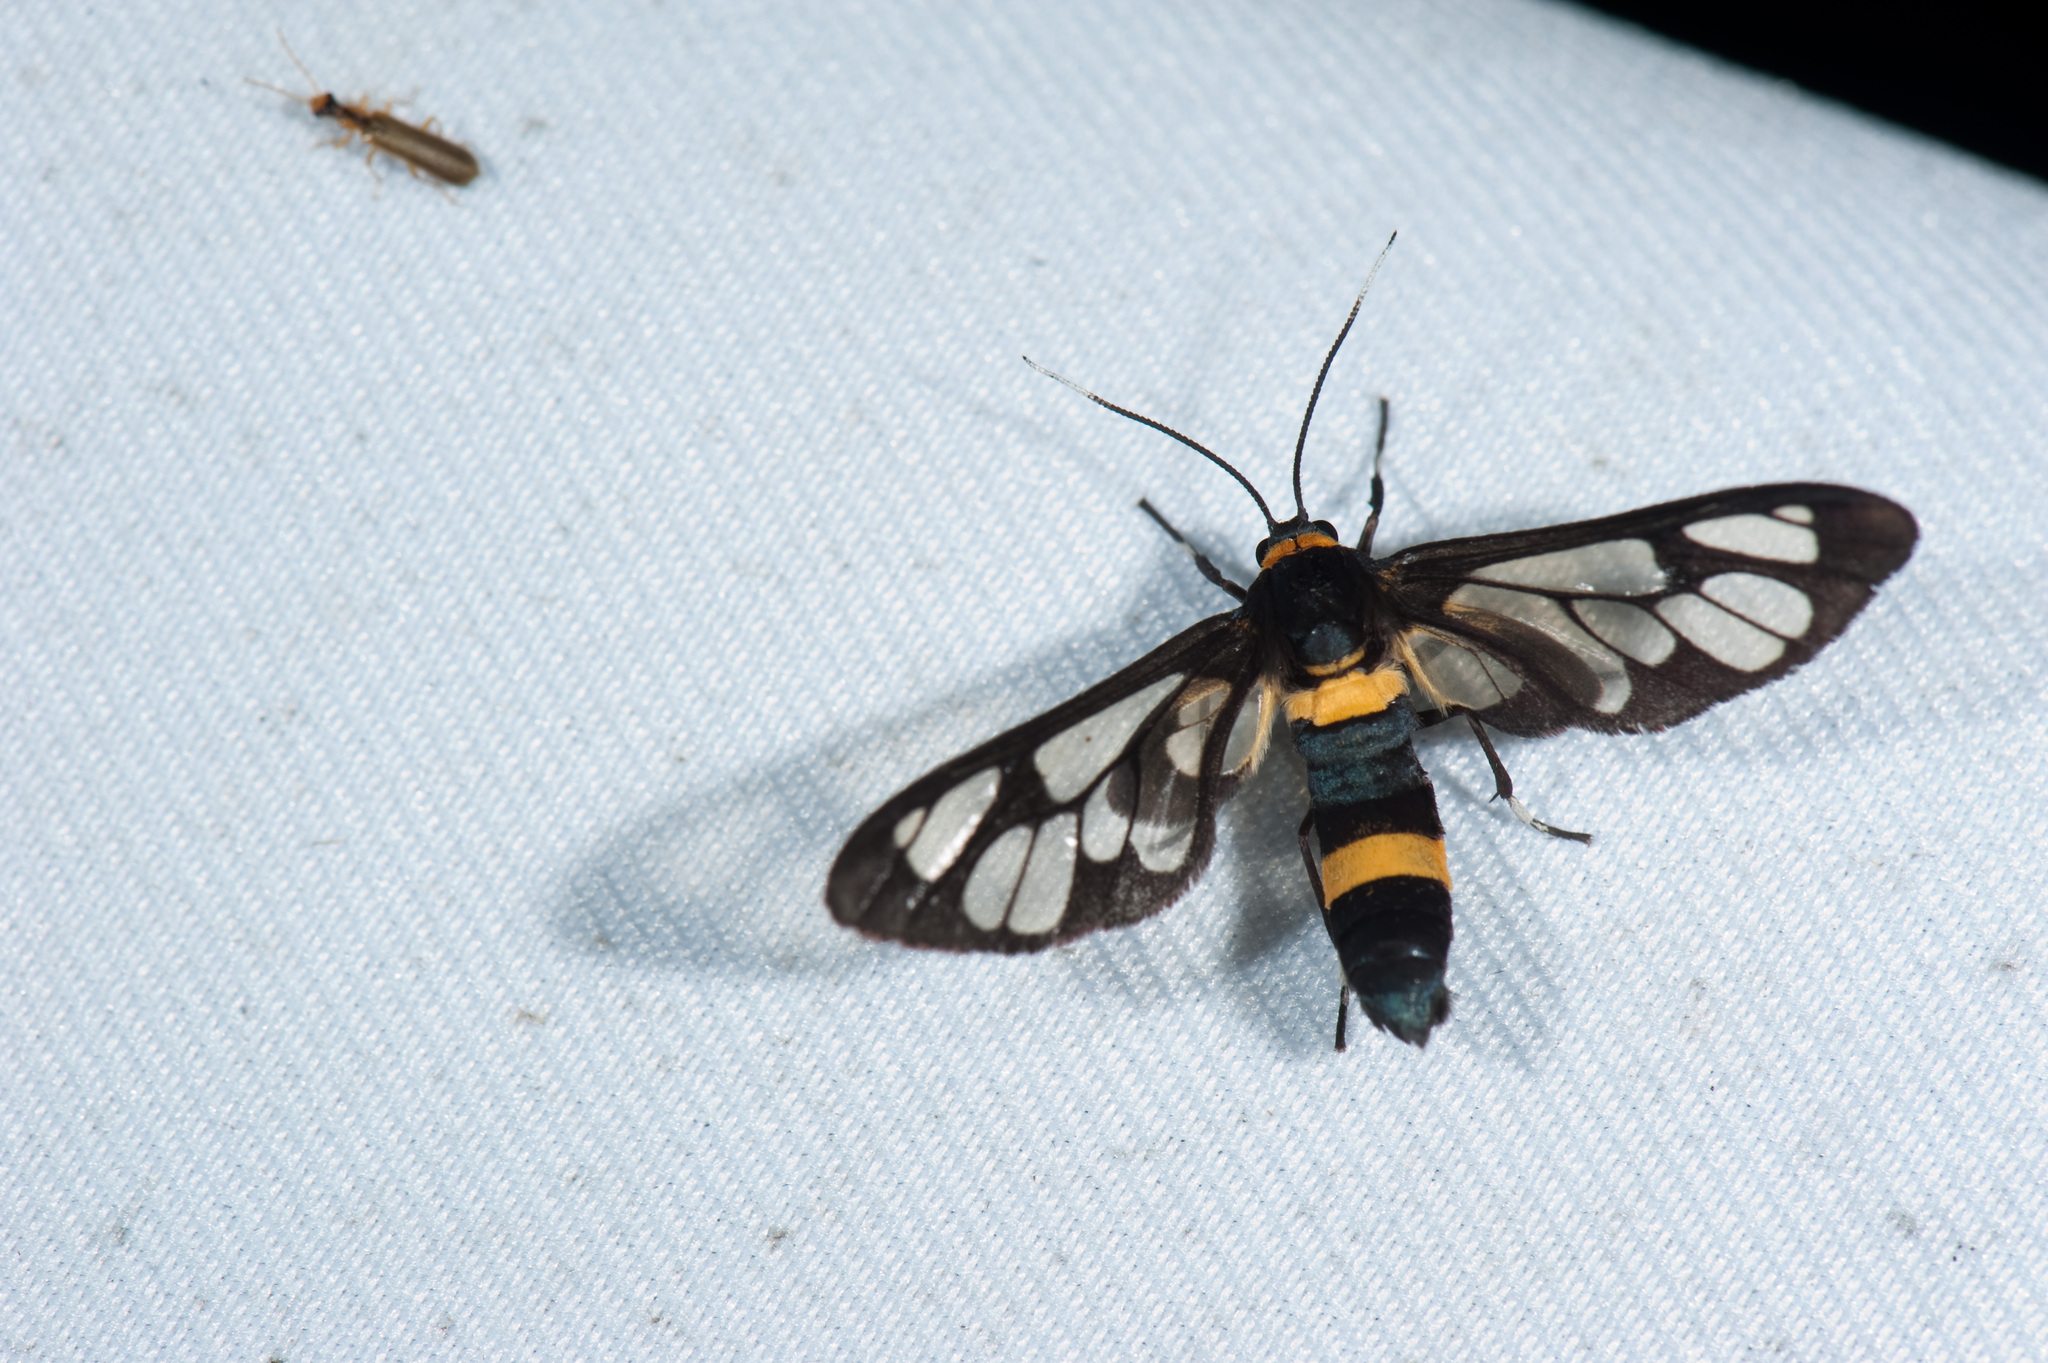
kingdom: Animalia
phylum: Arthropoda
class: Insecta
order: Lepidoptera
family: Erebidae
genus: Syntomoides
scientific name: Syntomoides imaon
